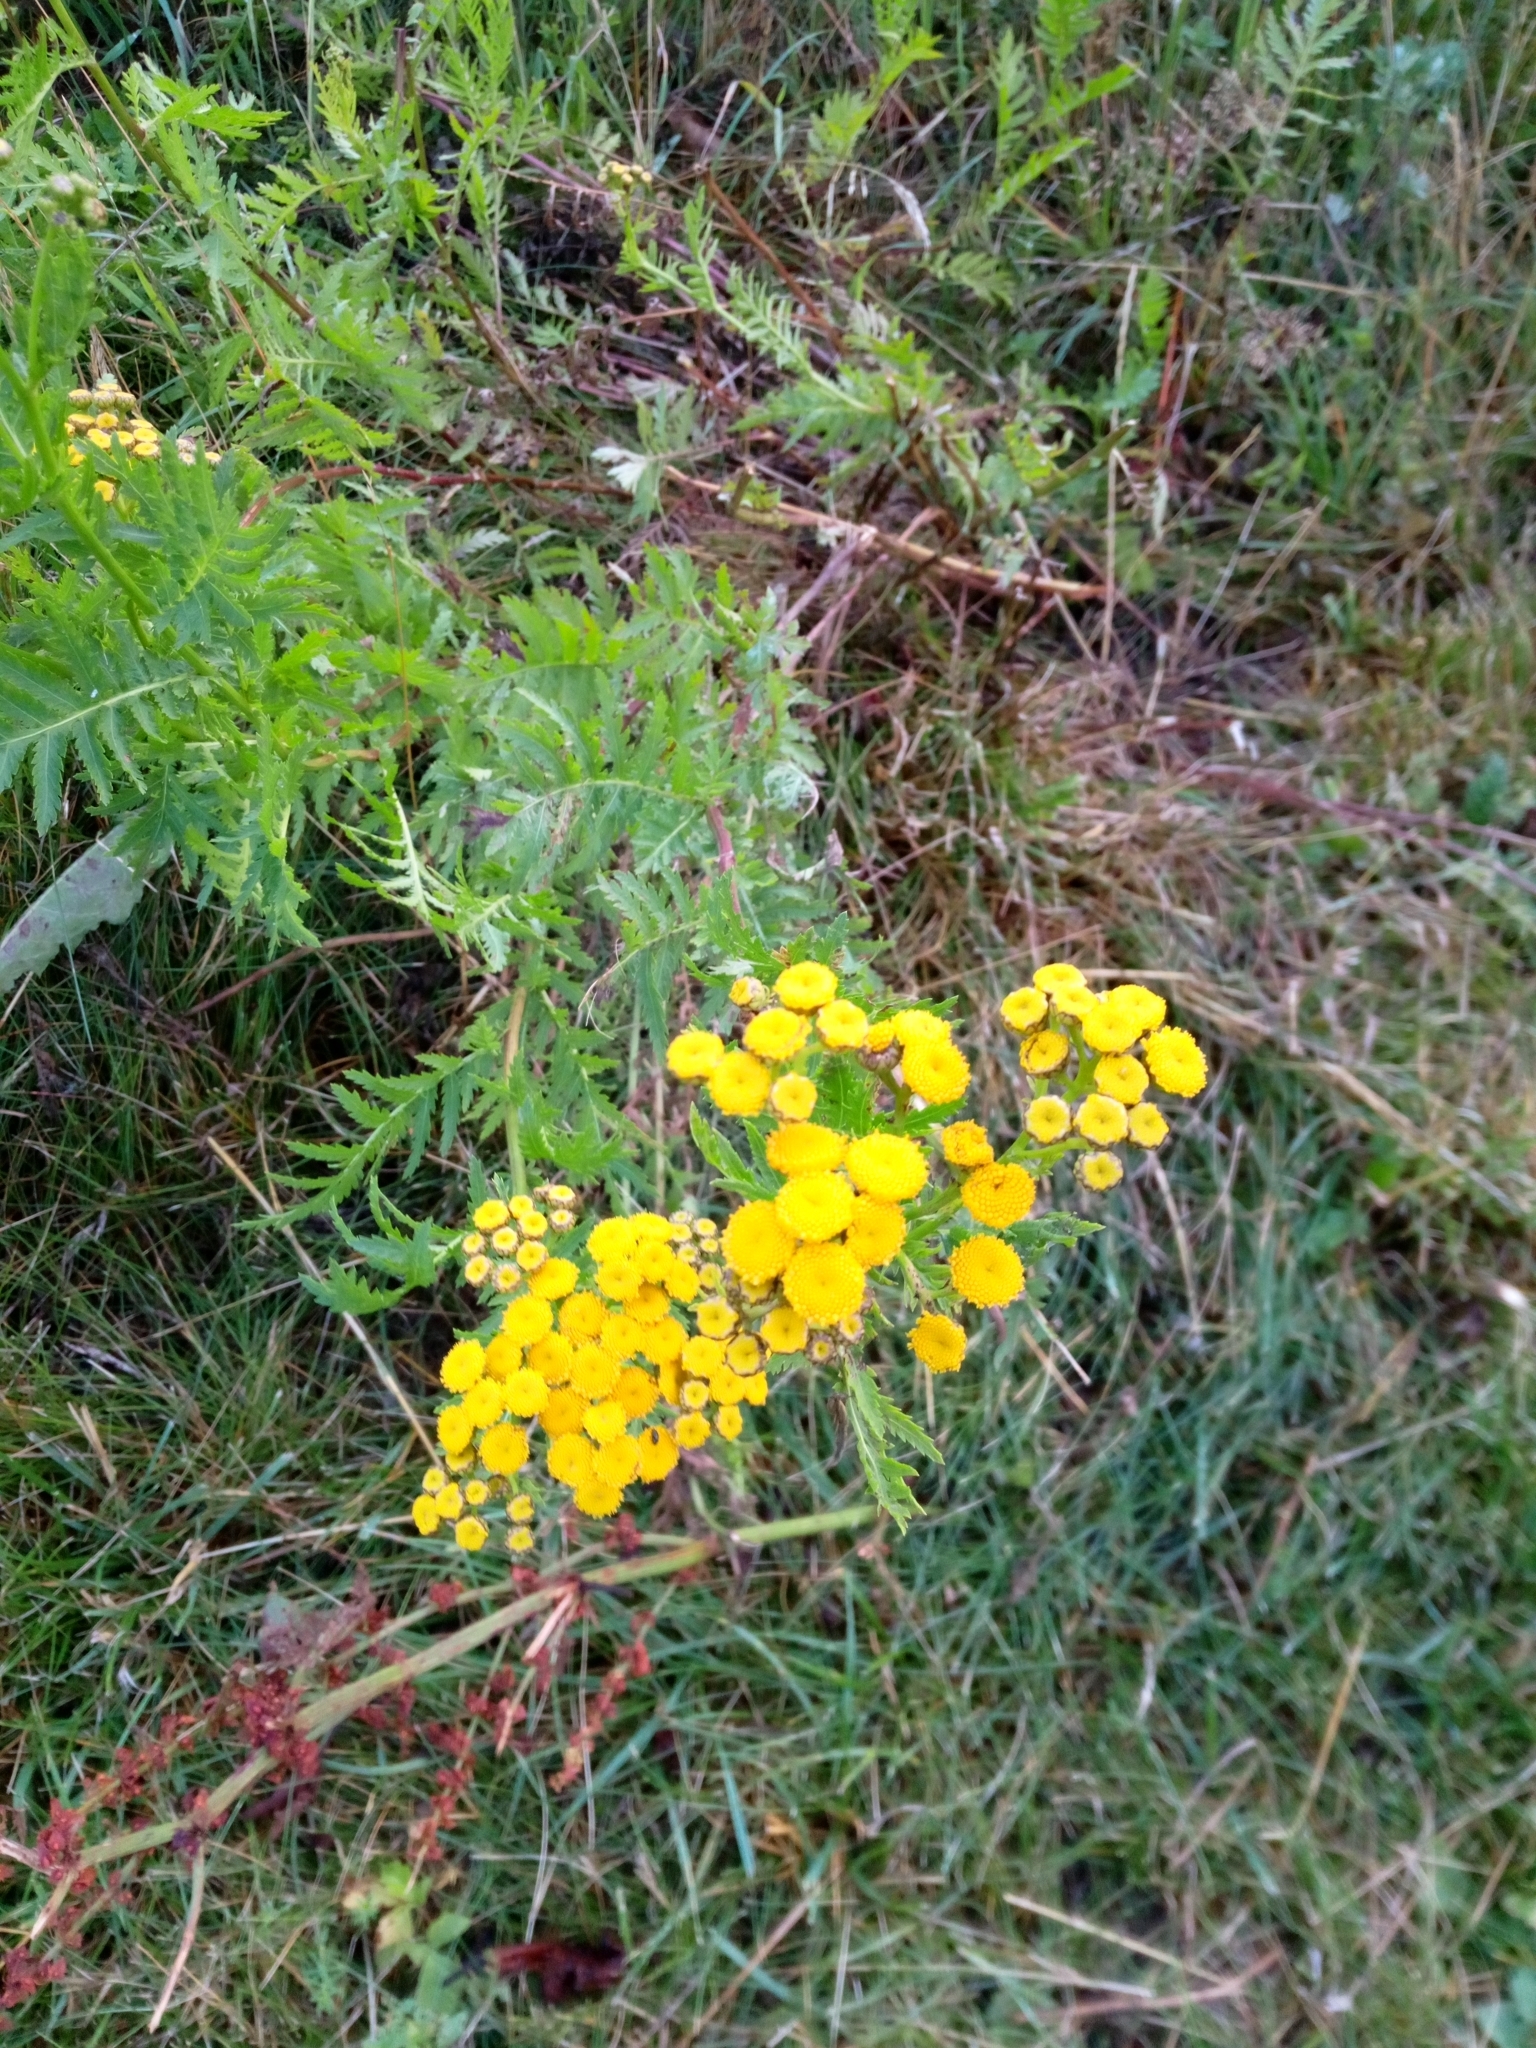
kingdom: Plantae
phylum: Tracheophyta
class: Magnoliopsida
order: Asterales
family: Asteraceae
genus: Tanacetum
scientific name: Tanacetum vulgare
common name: Common tansy
